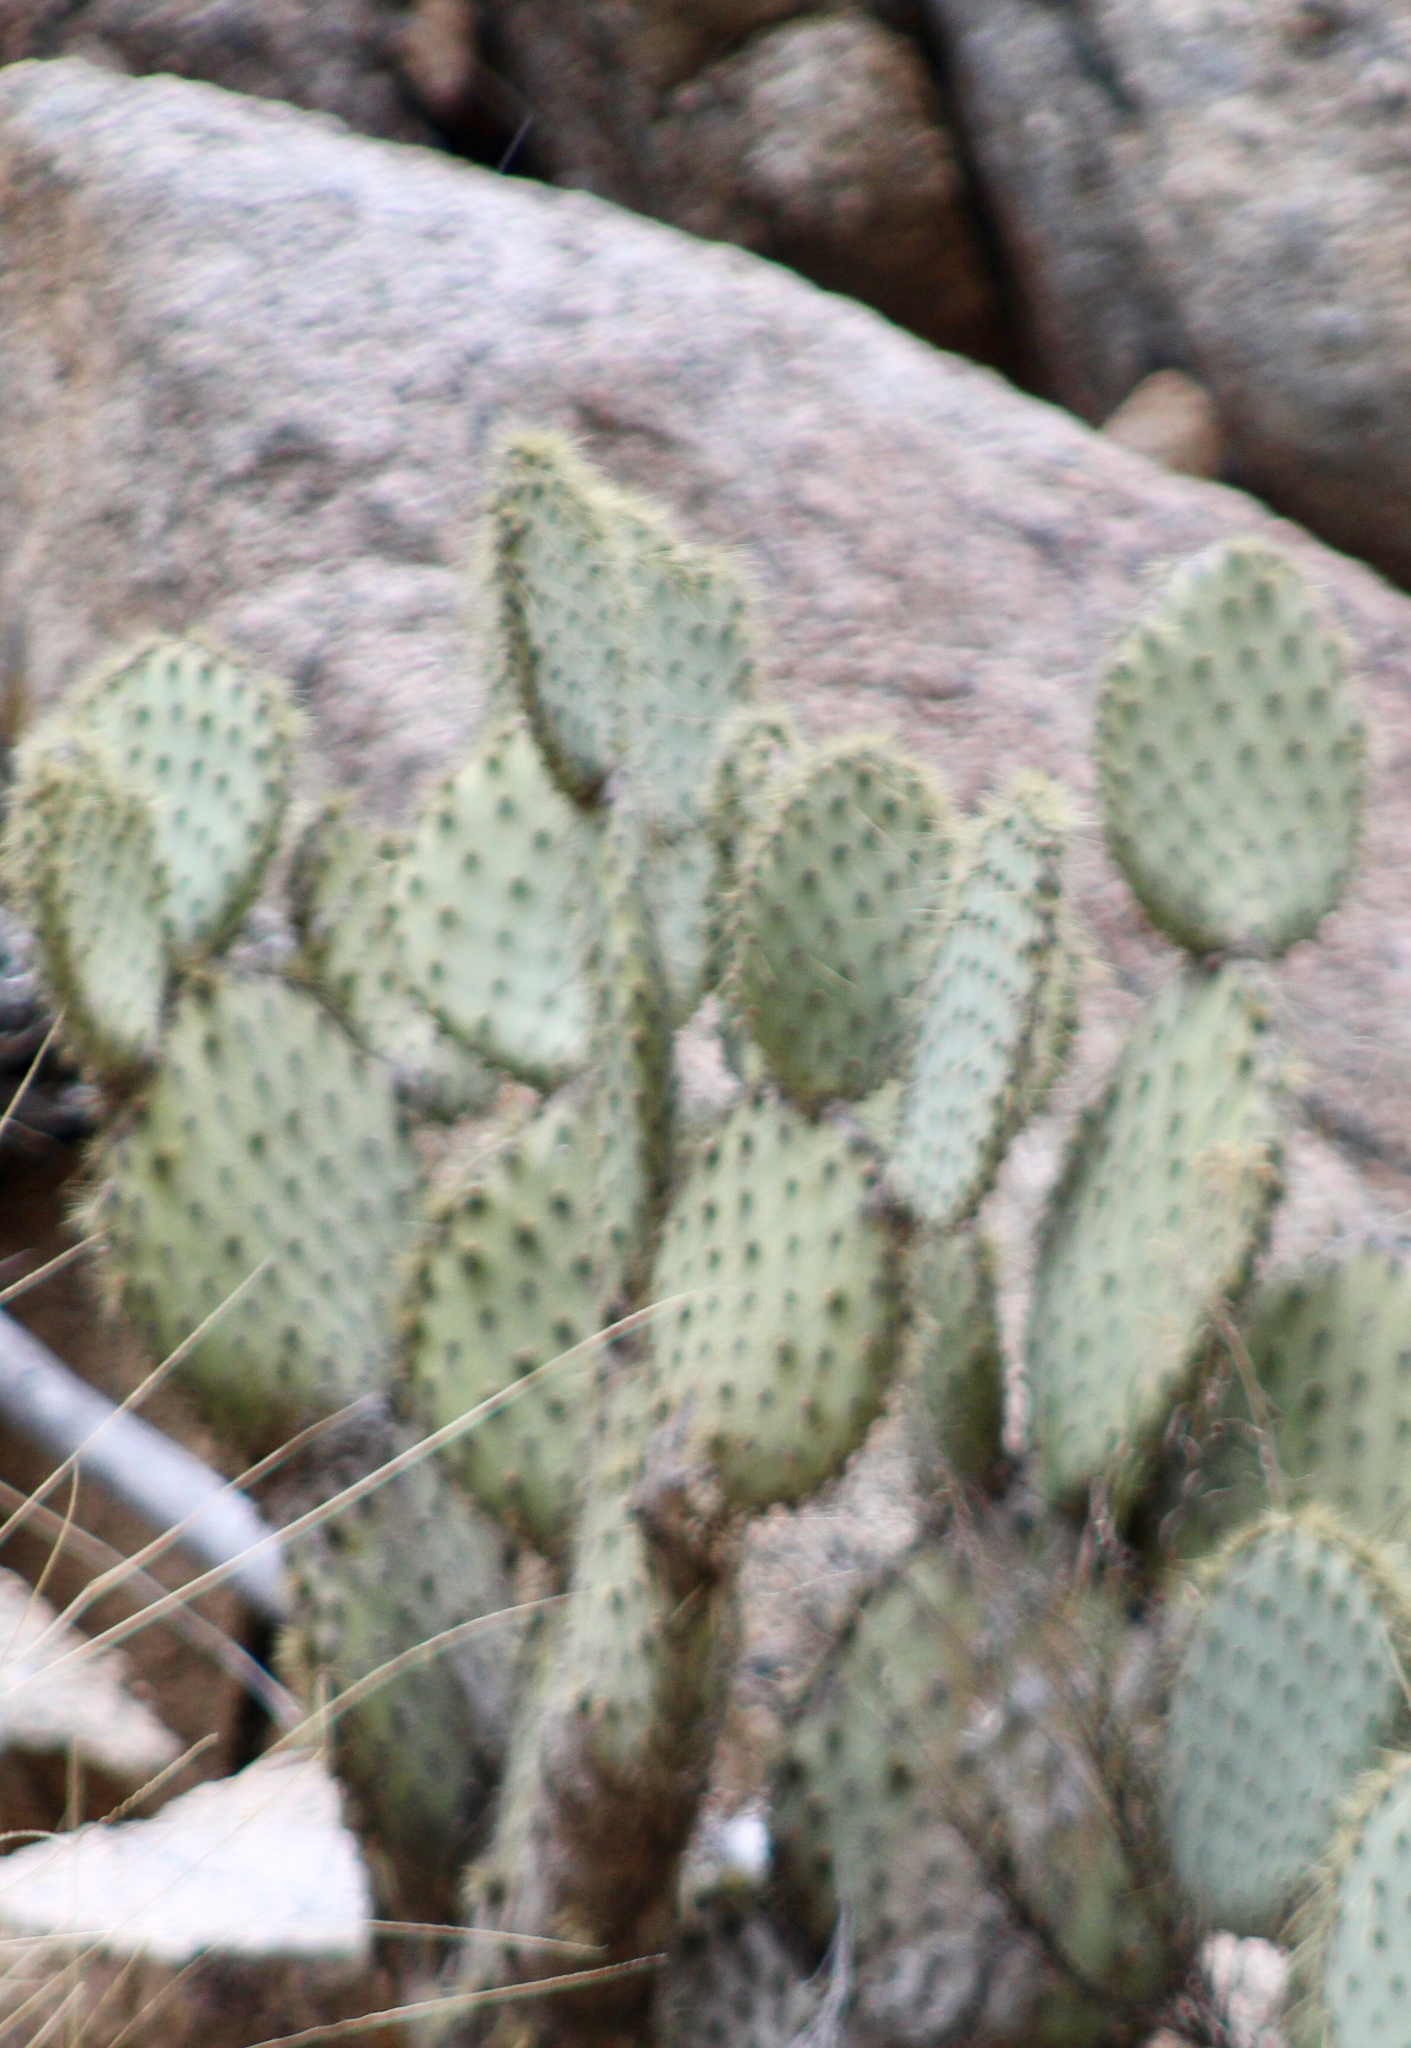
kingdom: Plantae
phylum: Tracheophyta
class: Magnoliopsida
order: Caryophyllales
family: Cactaceae
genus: Opuntia
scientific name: Opuntia chlorotica
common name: Dollar-joint prickly-pear
